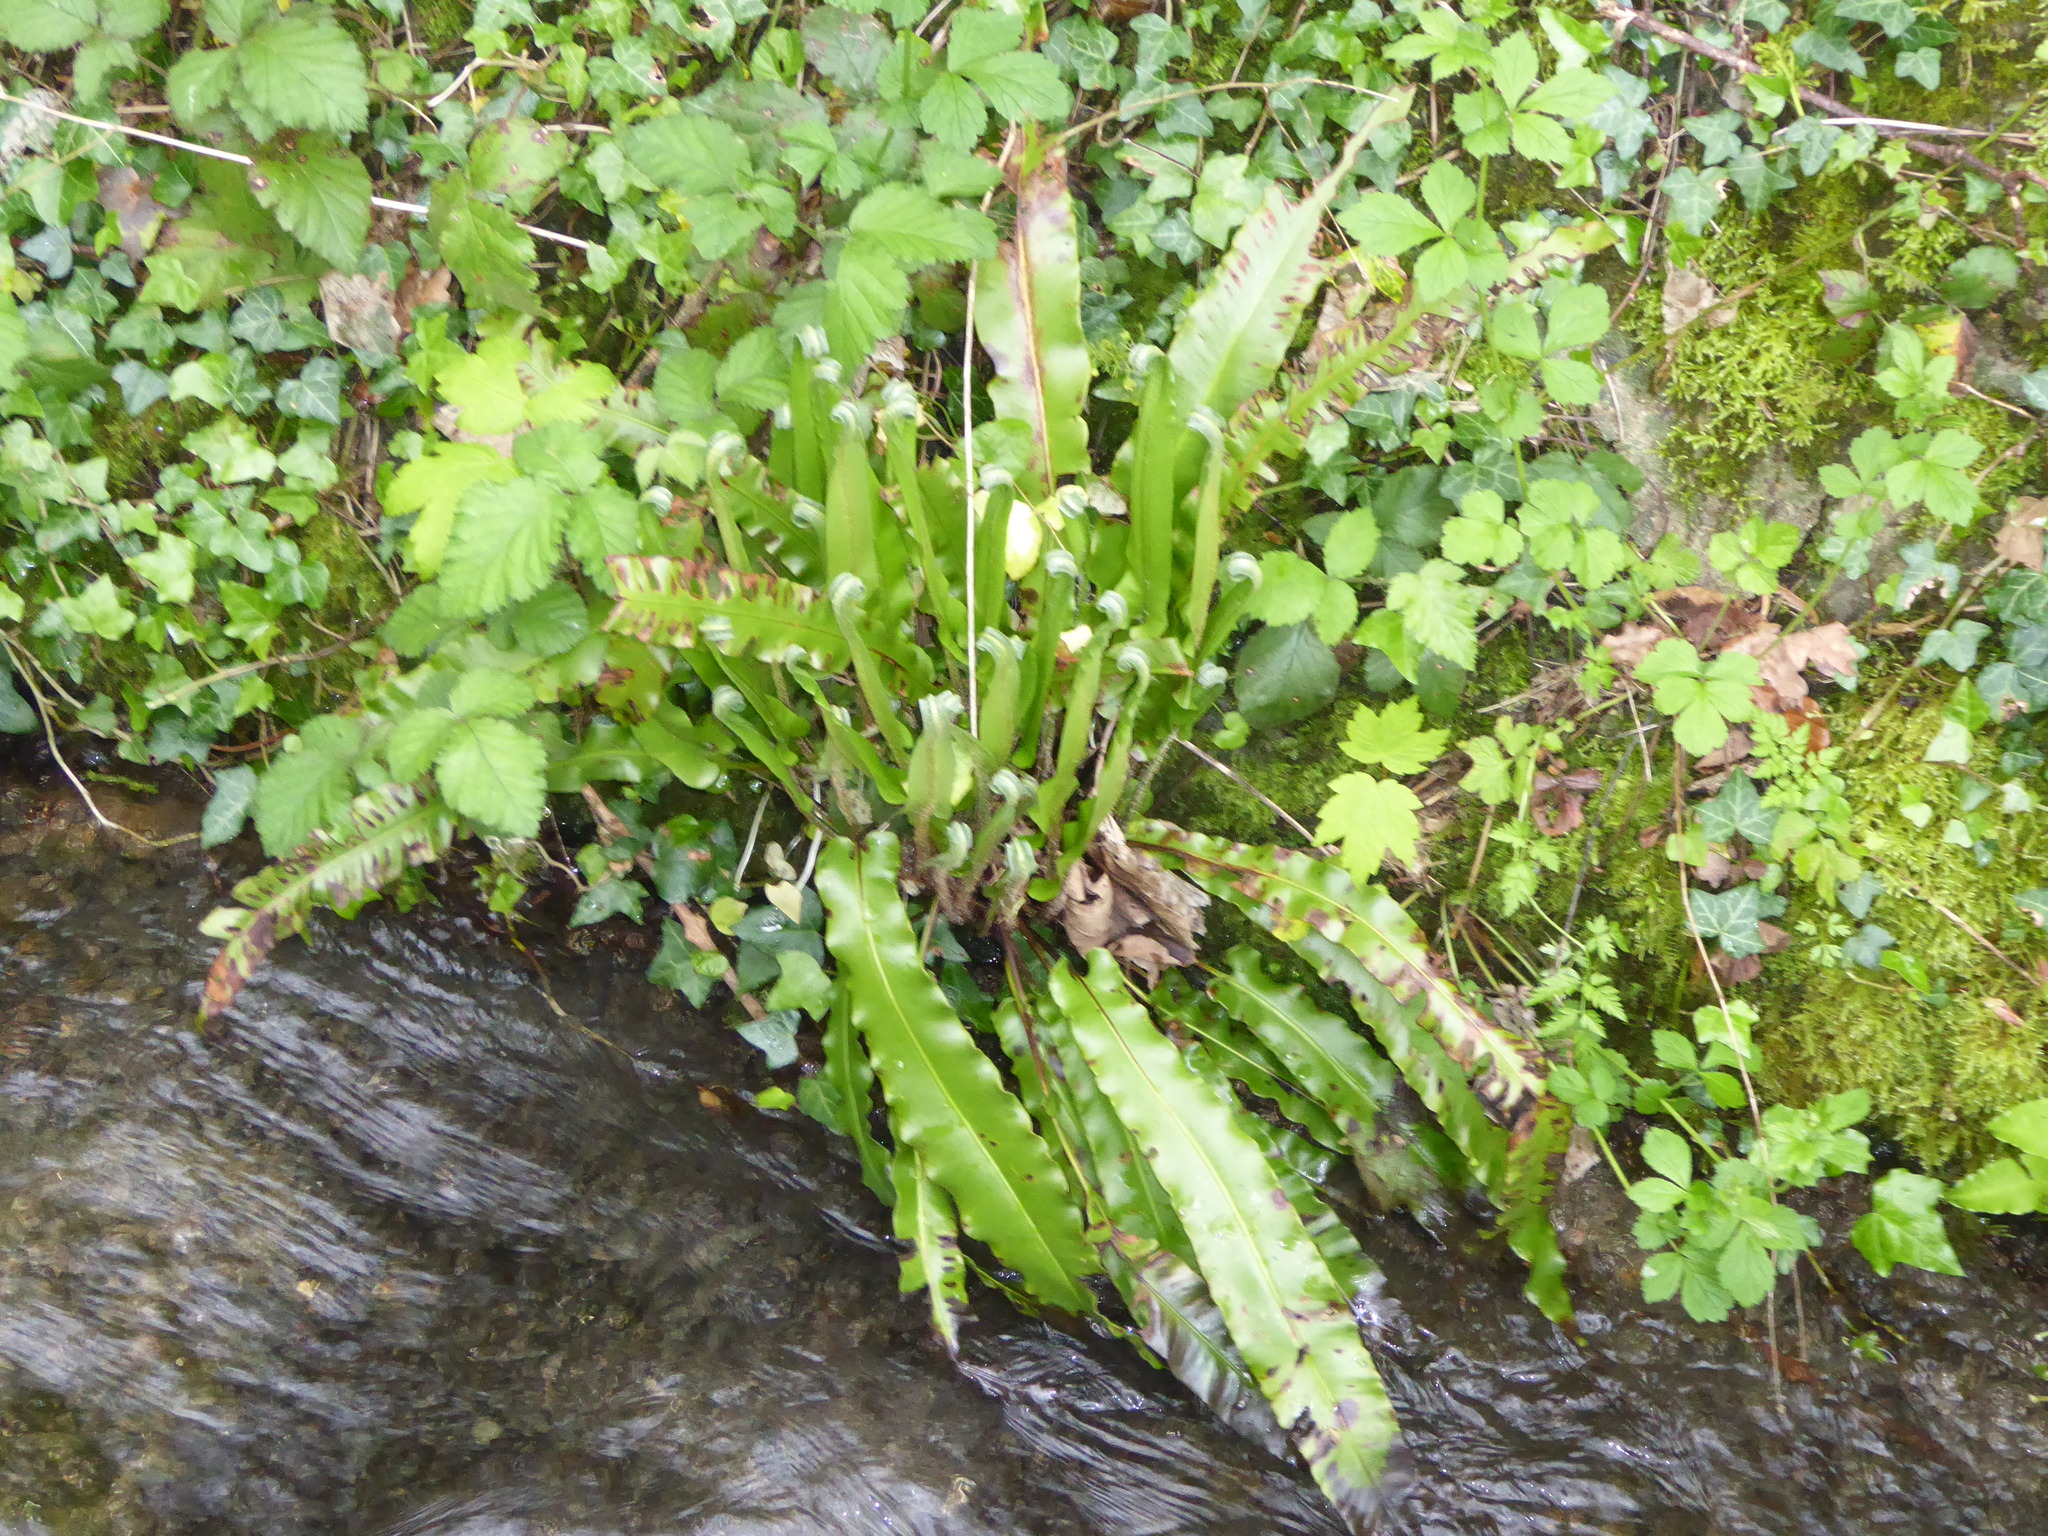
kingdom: Plantae
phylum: Tracheophyta
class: Polypodiopsida
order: Polypodiales
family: Aspleniaceae
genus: Asplenium
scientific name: Asplenium scolopendrium
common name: Hart's-tongue fern
